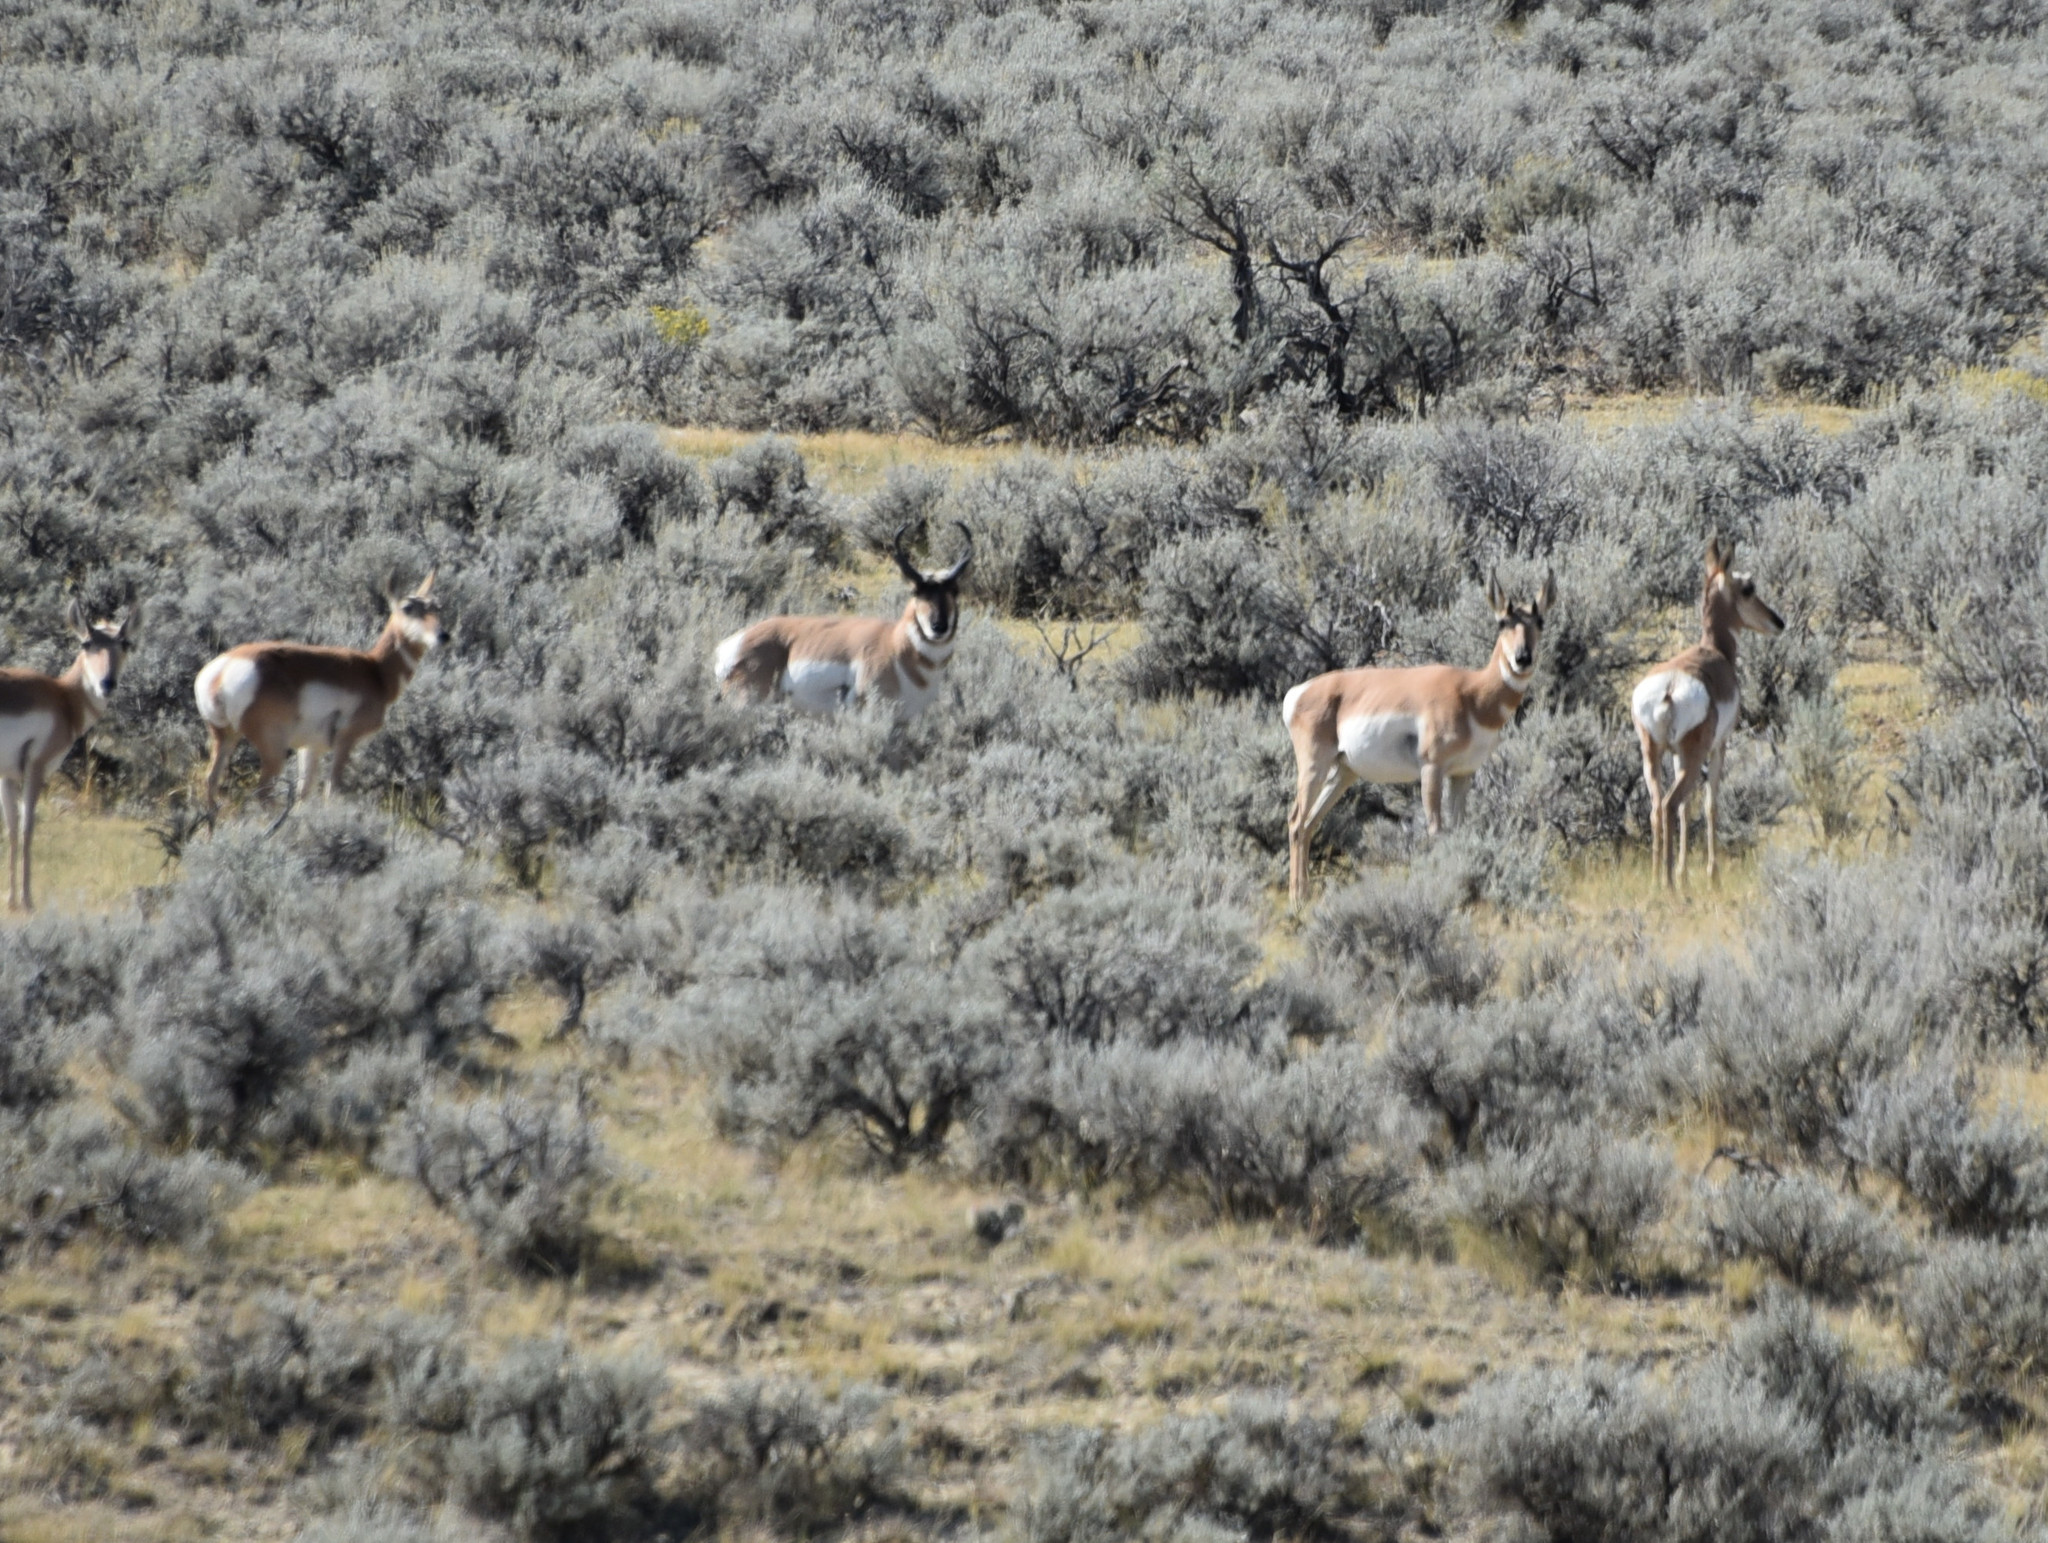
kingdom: Animalia
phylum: Chordata
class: Mammalia
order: Artiodactyla
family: Antilocapridae
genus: Antilocapra
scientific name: Antilocapra americana
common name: Pronghorn
